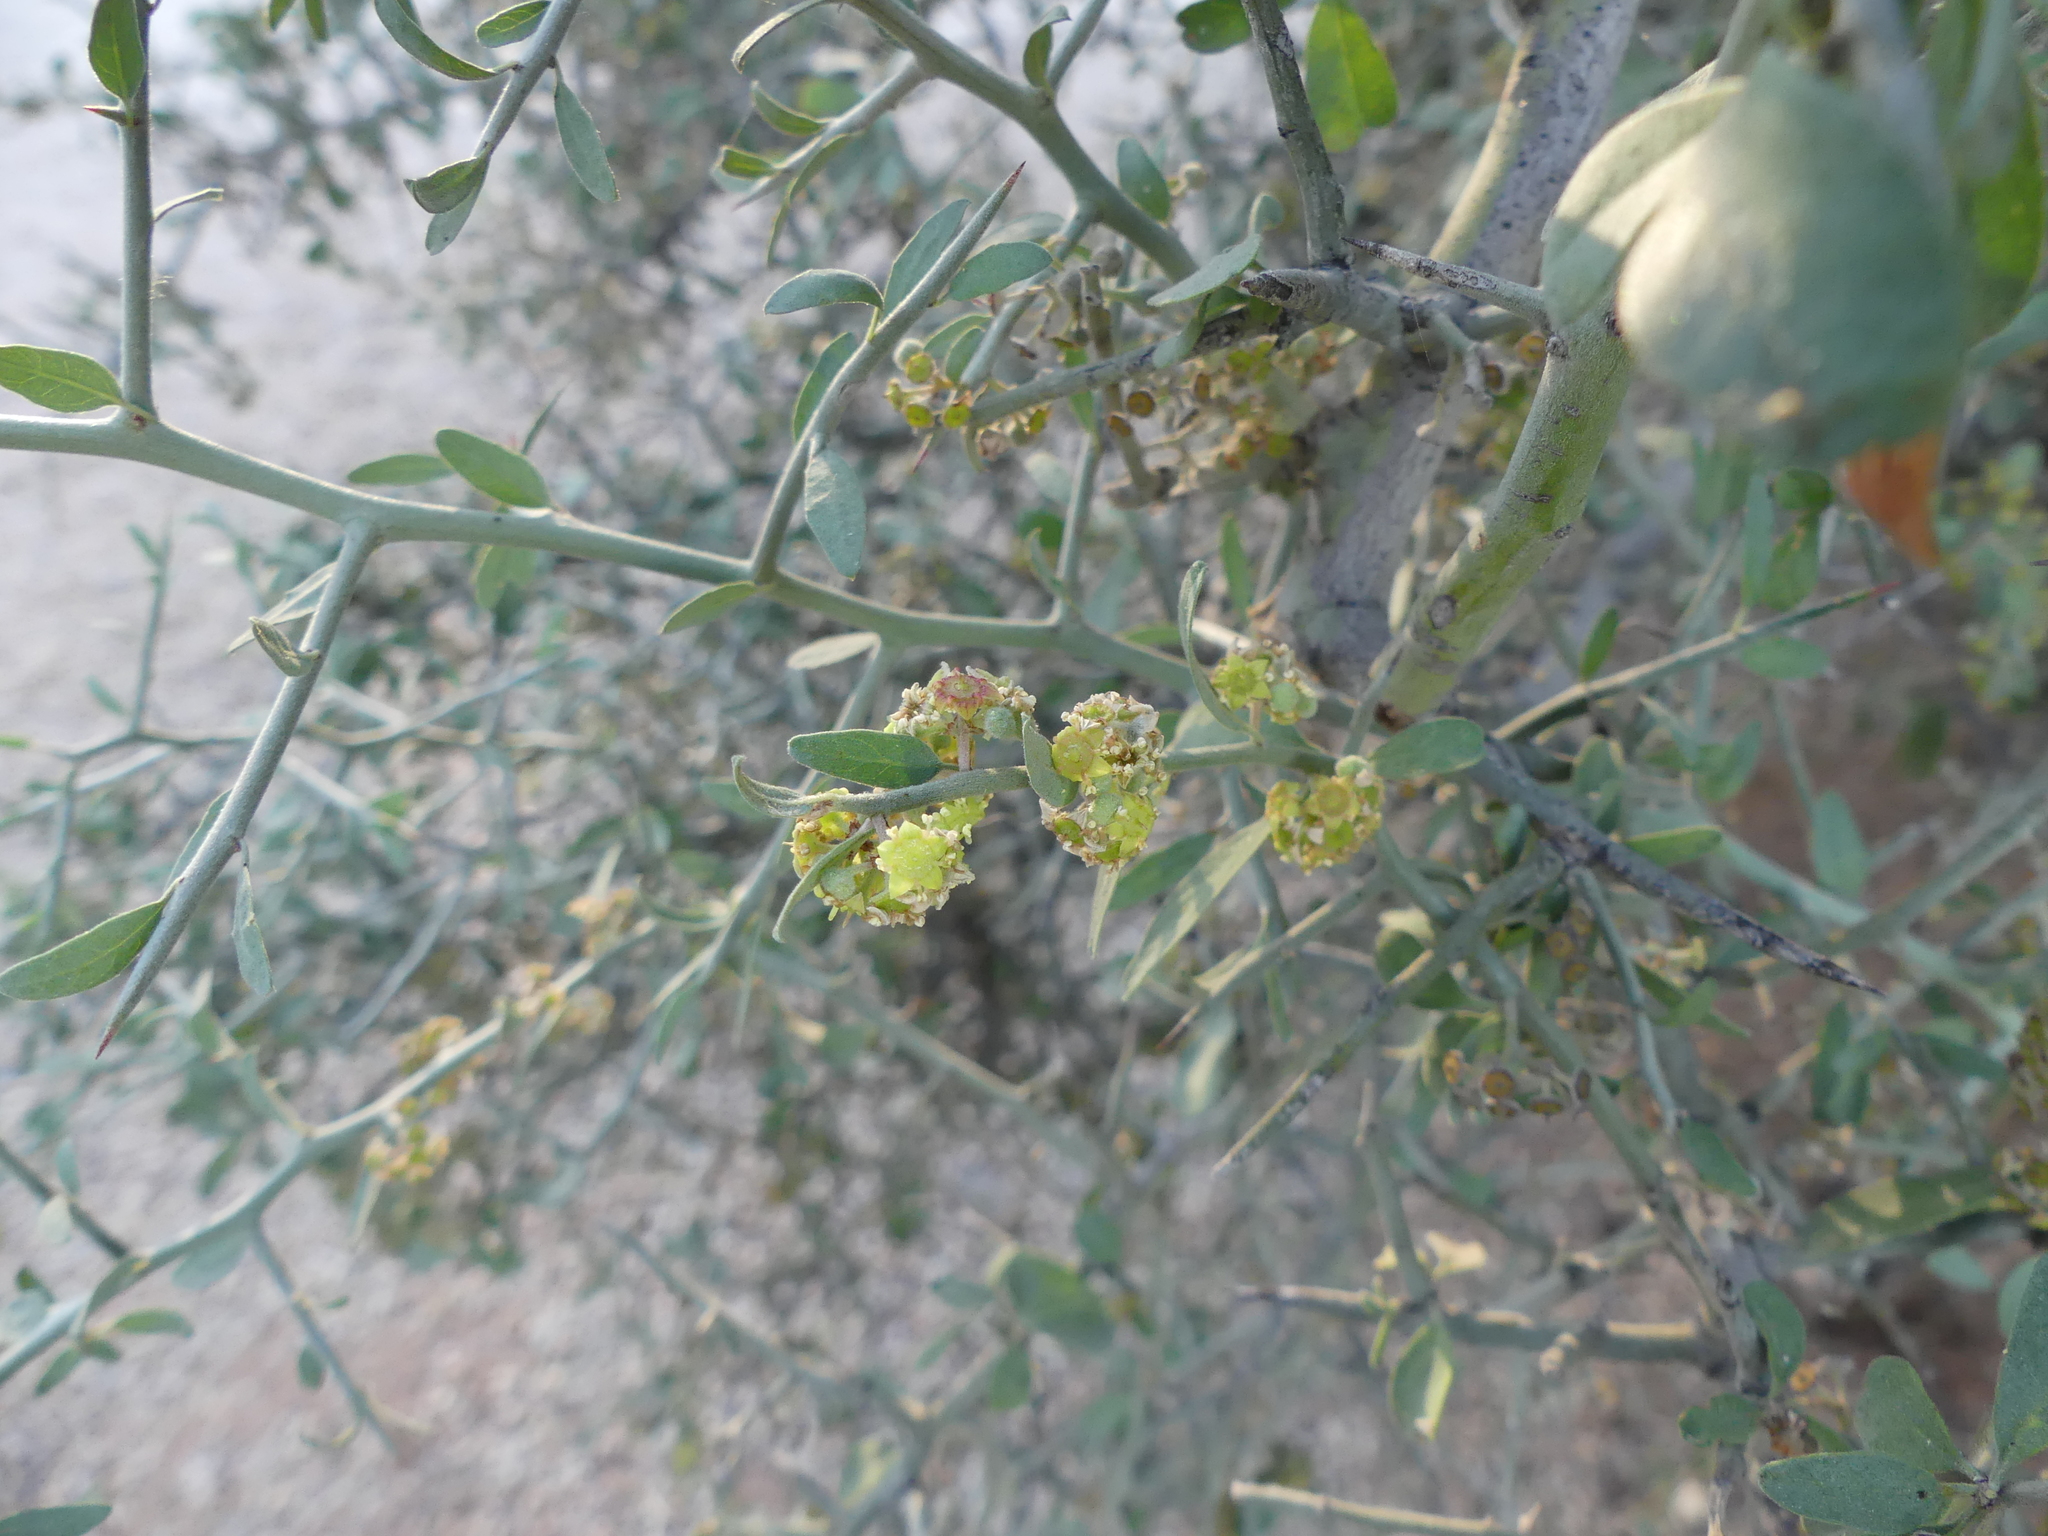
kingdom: Plantae
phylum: Tracheophyta
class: Magnoliopsida
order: Rosales
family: Rhamnaceae
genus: Sarcomphalus
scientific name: Sarcomphalus obtusifolius
